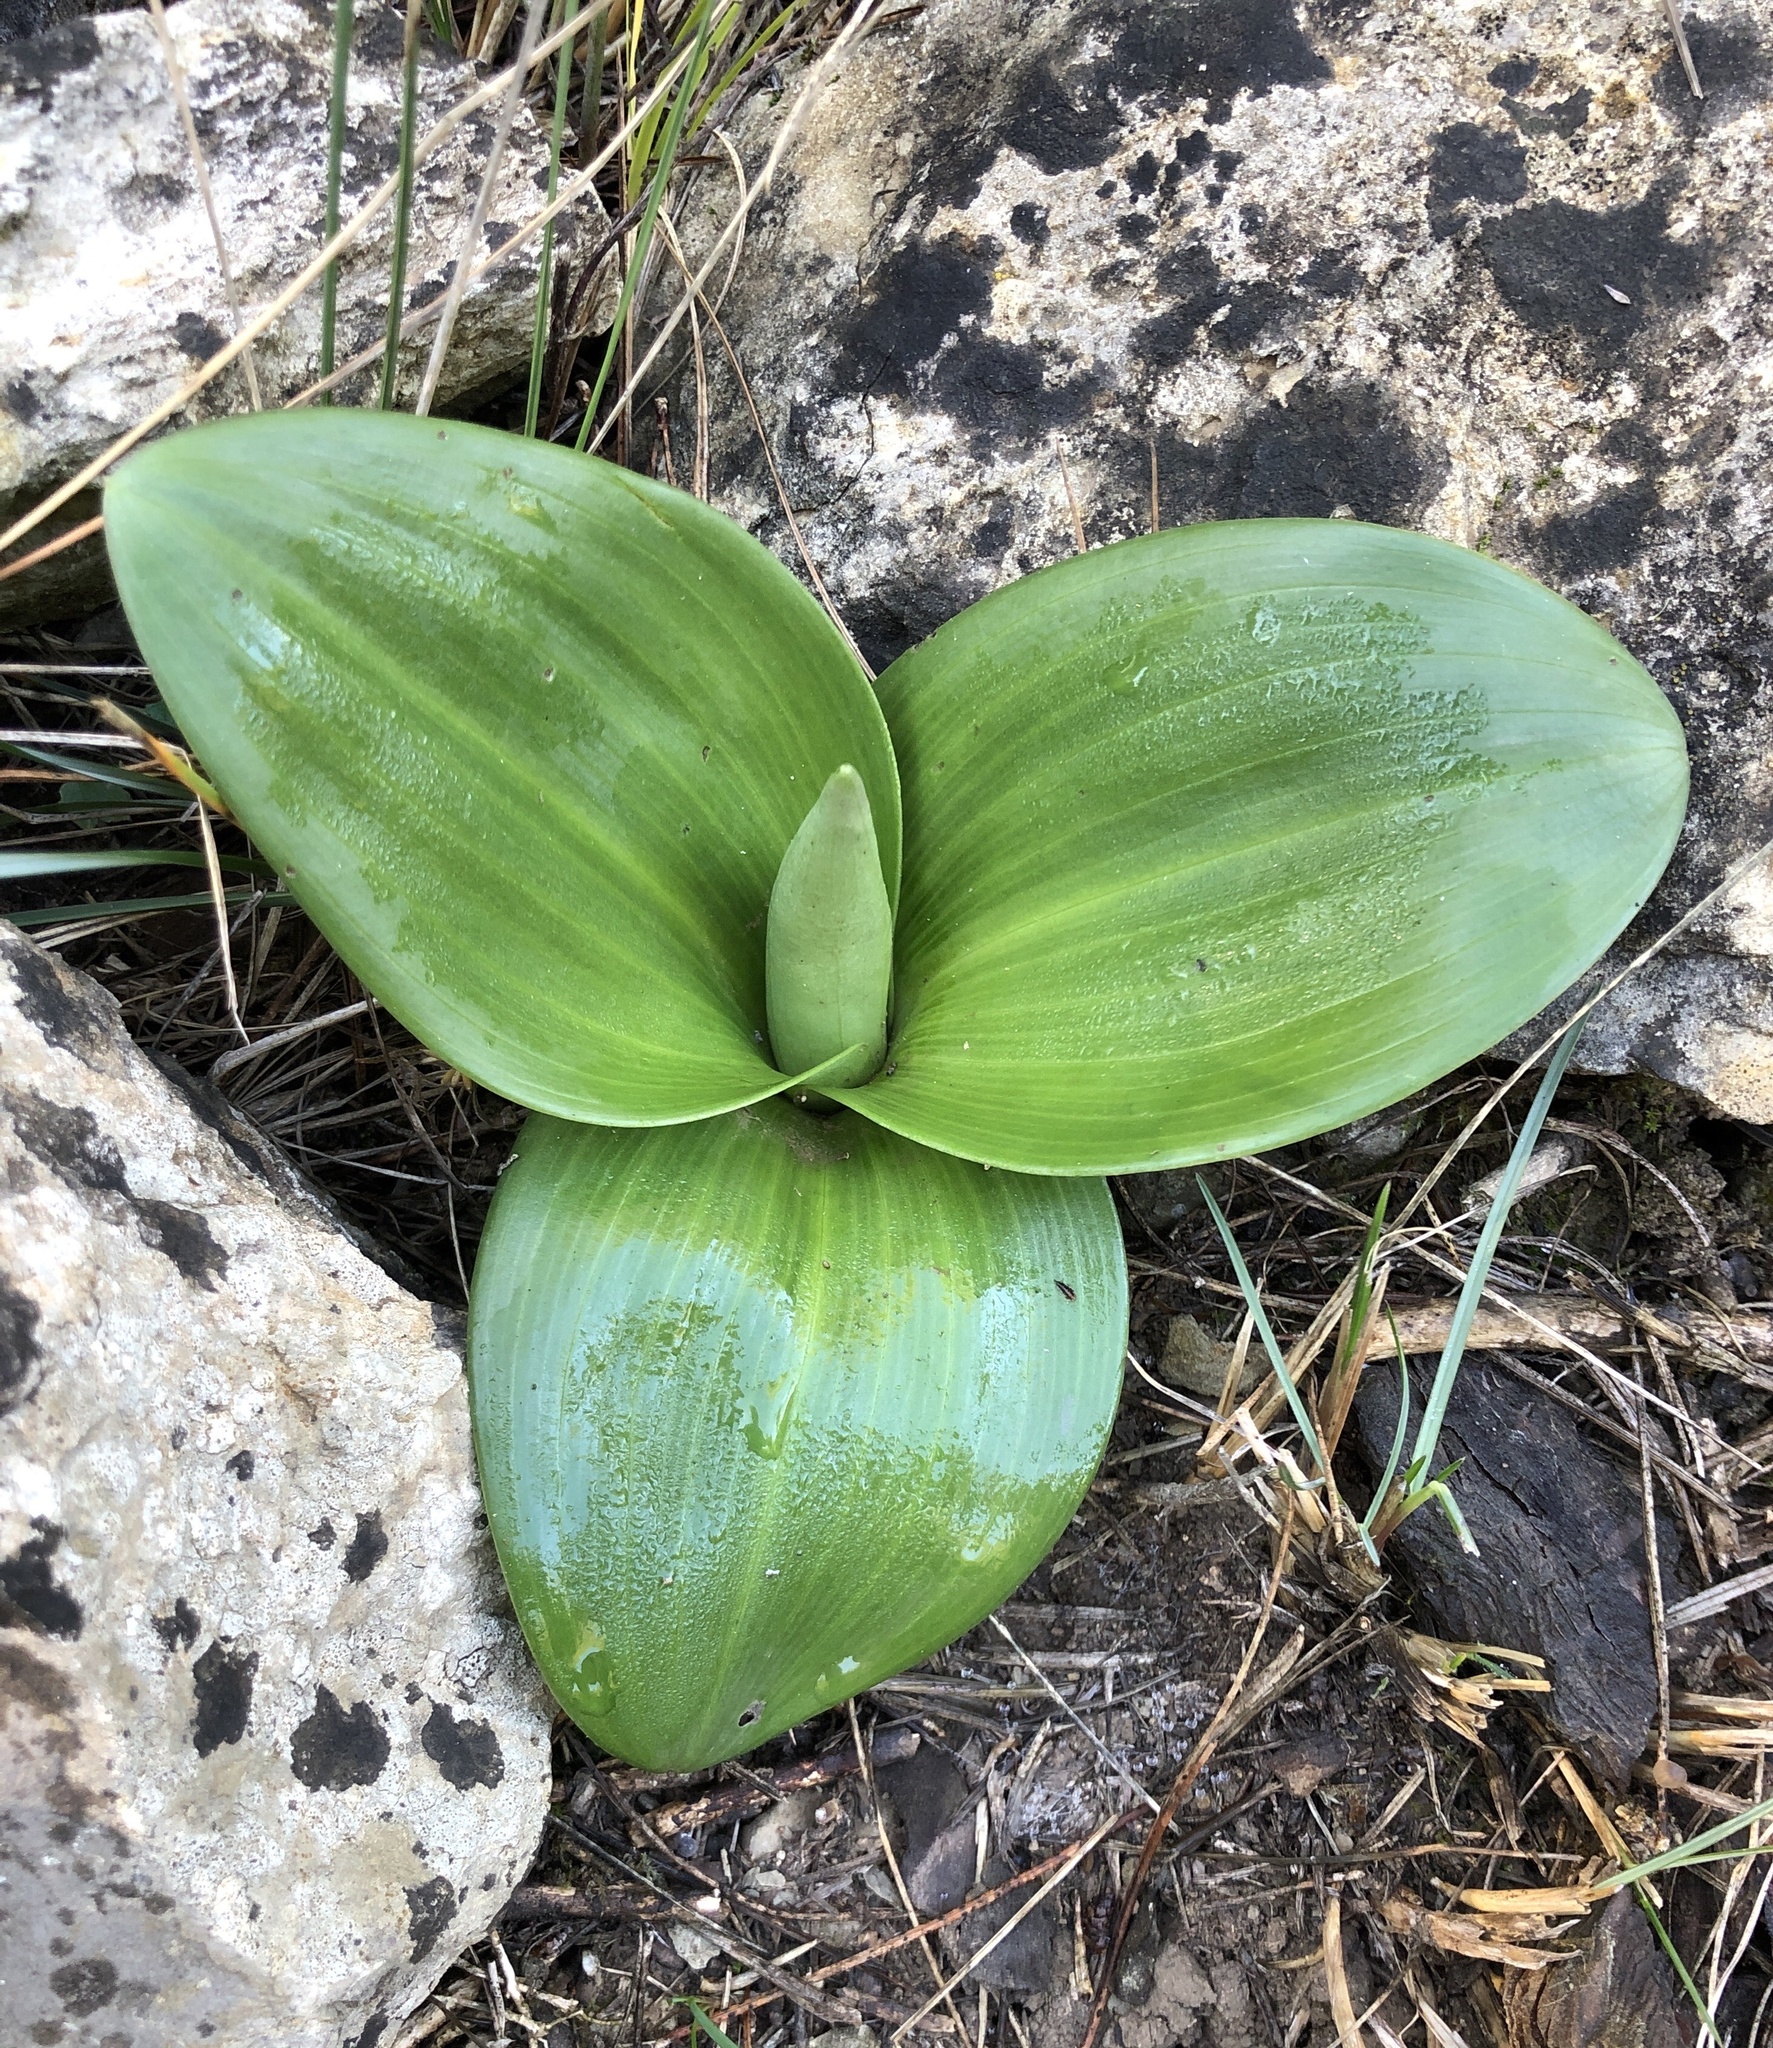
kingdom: Plantae
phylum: Tracheophyta
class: Liliopsida
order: Asparagales
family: Orchidaceae
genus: Himantoglossum
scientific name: Himantoglossum robertianum
